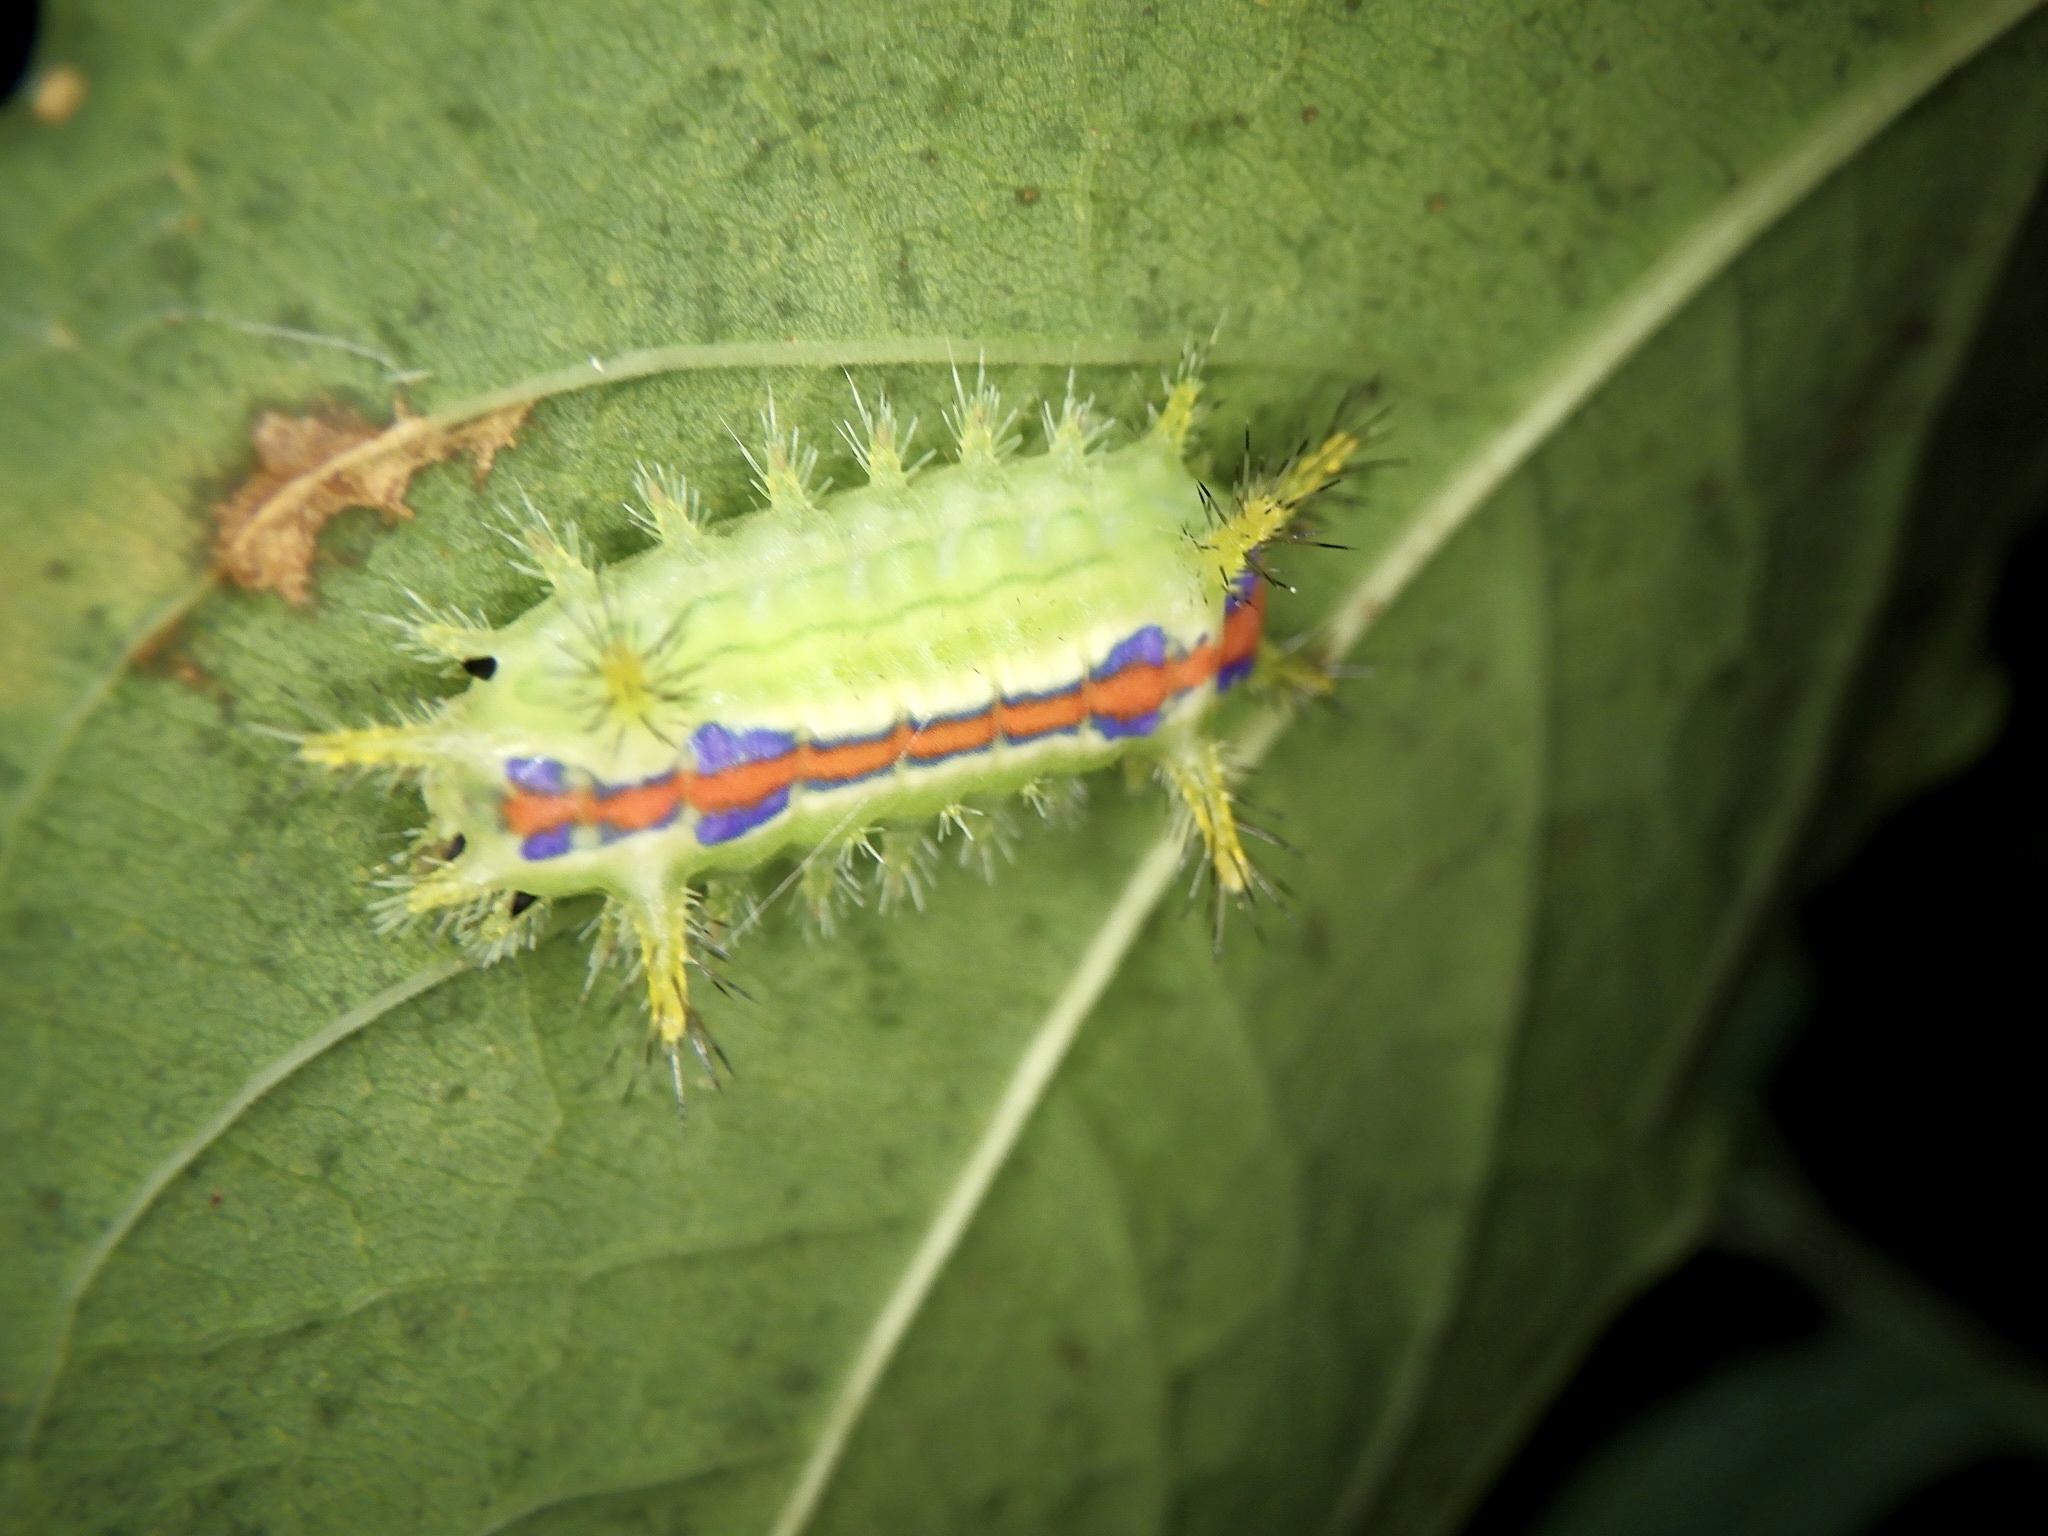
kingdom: Animalia
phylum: Arthropoda
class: Insecta
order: Lepidoptera
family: Limacodidae
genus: Parasa
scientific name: Parasa hilarula
